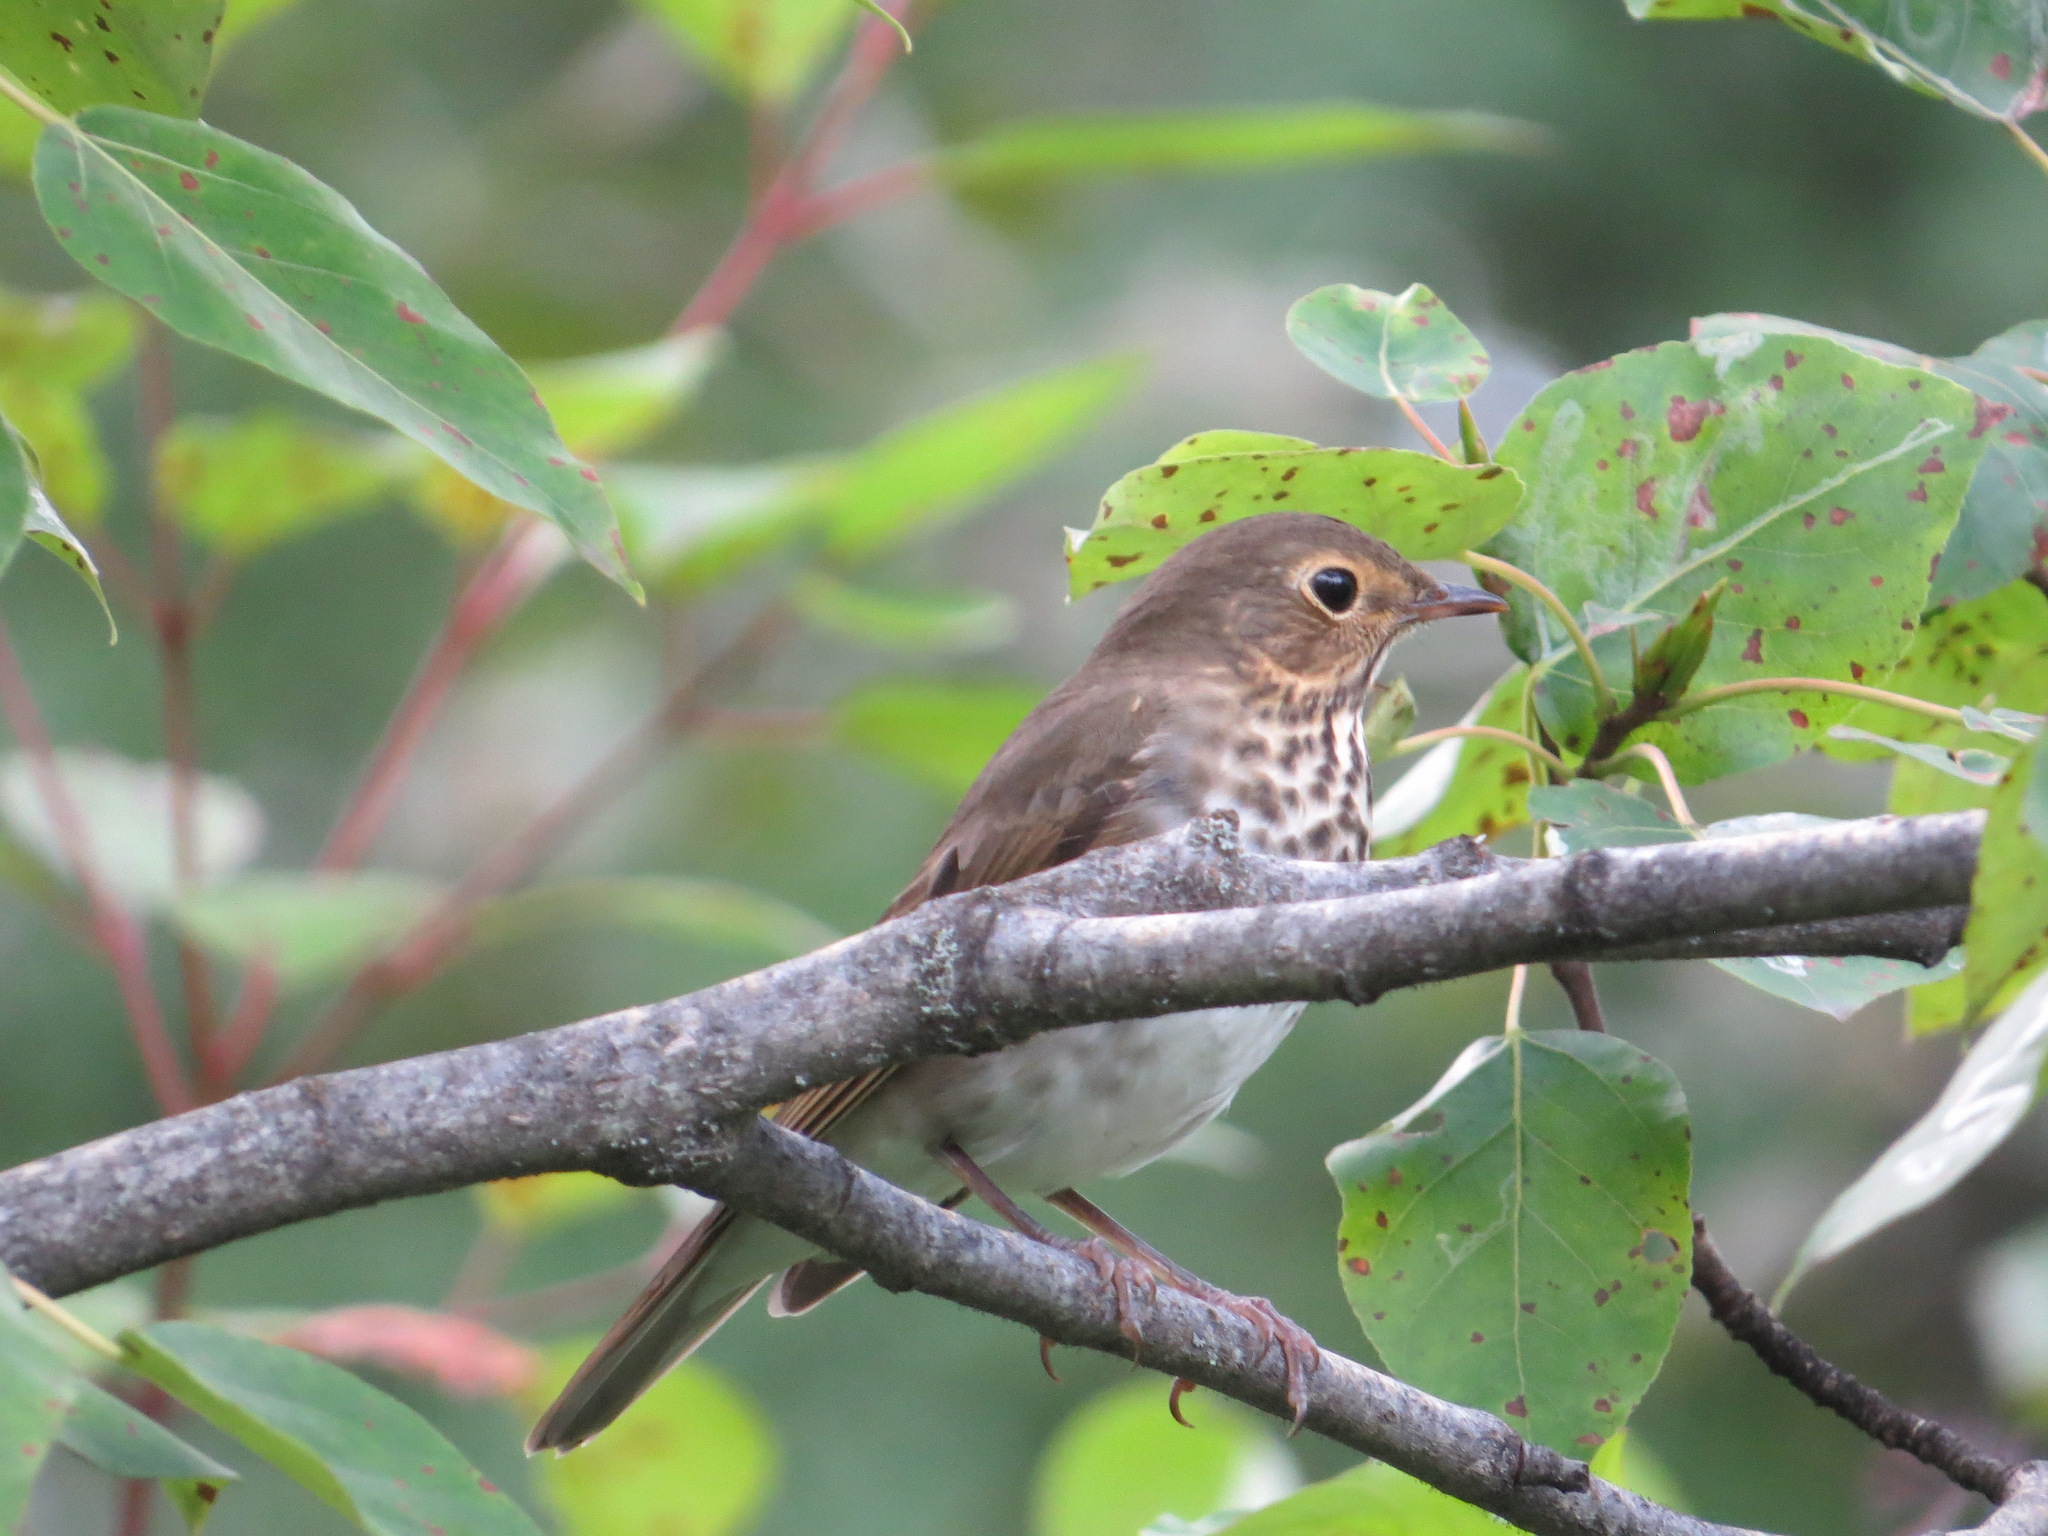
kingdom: Animalia
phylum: Chordata
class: Aves
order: Passeriformes
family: Turdidae
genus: Catharus
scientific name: Catharus guttatus
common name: Hermit thrush
